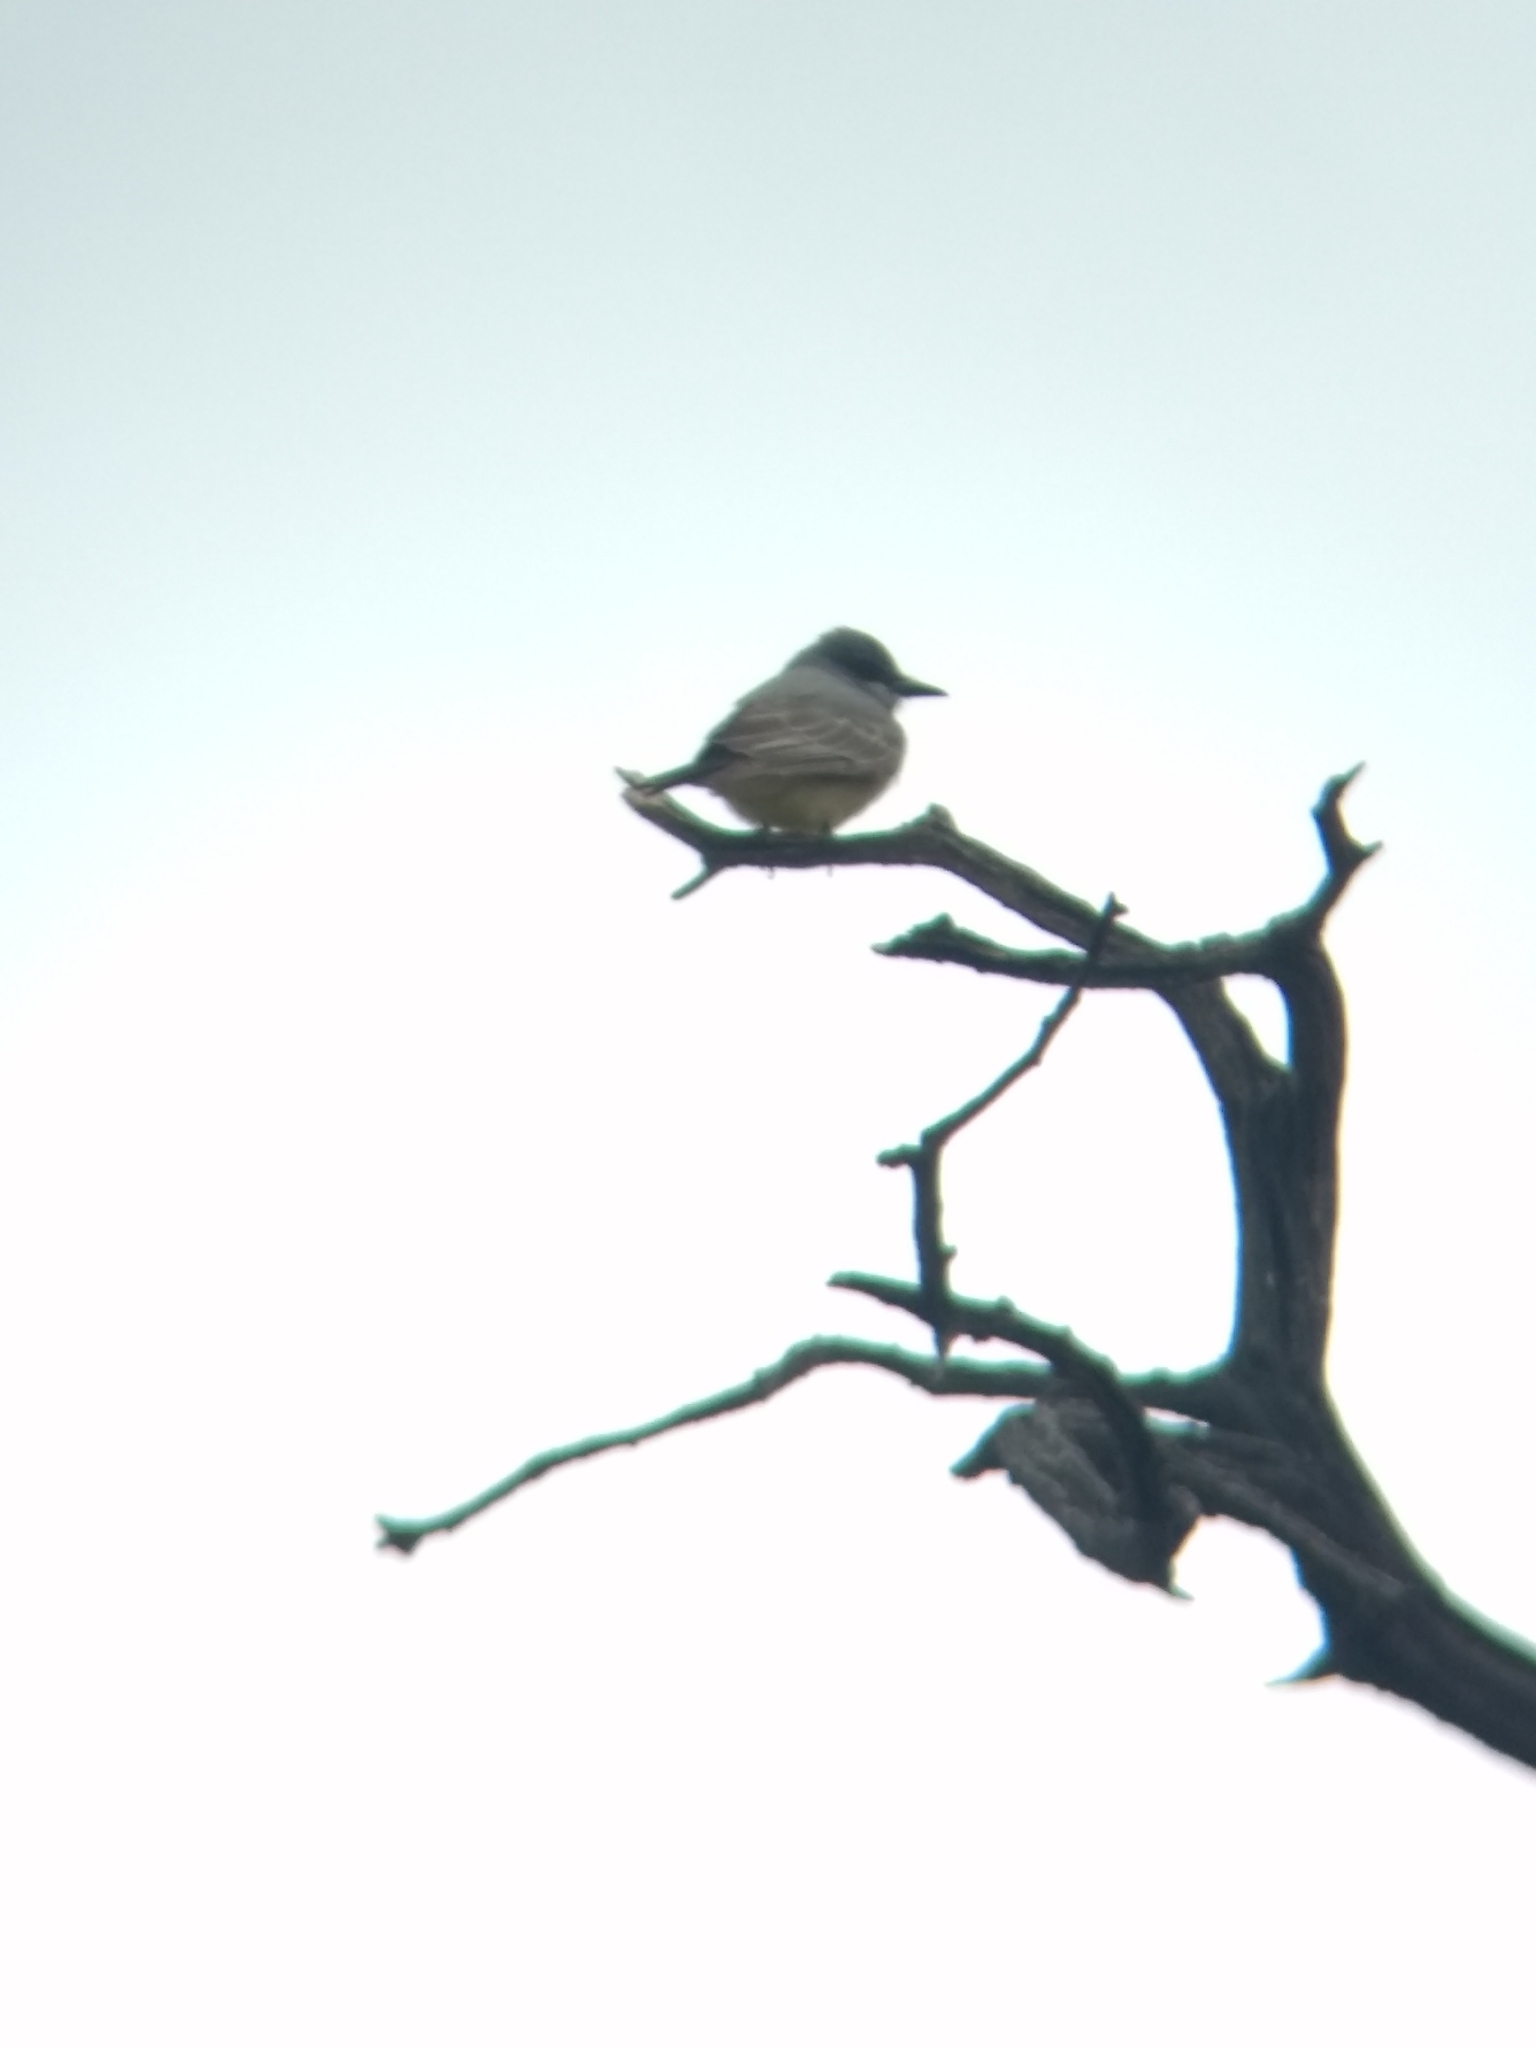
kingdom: Animalia
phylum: Chordata
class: Aves
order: Passeriformes
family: Tyrannidae
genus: Tyrannus
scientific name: Tyrannus vociferans
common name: Cassin's kingbird
